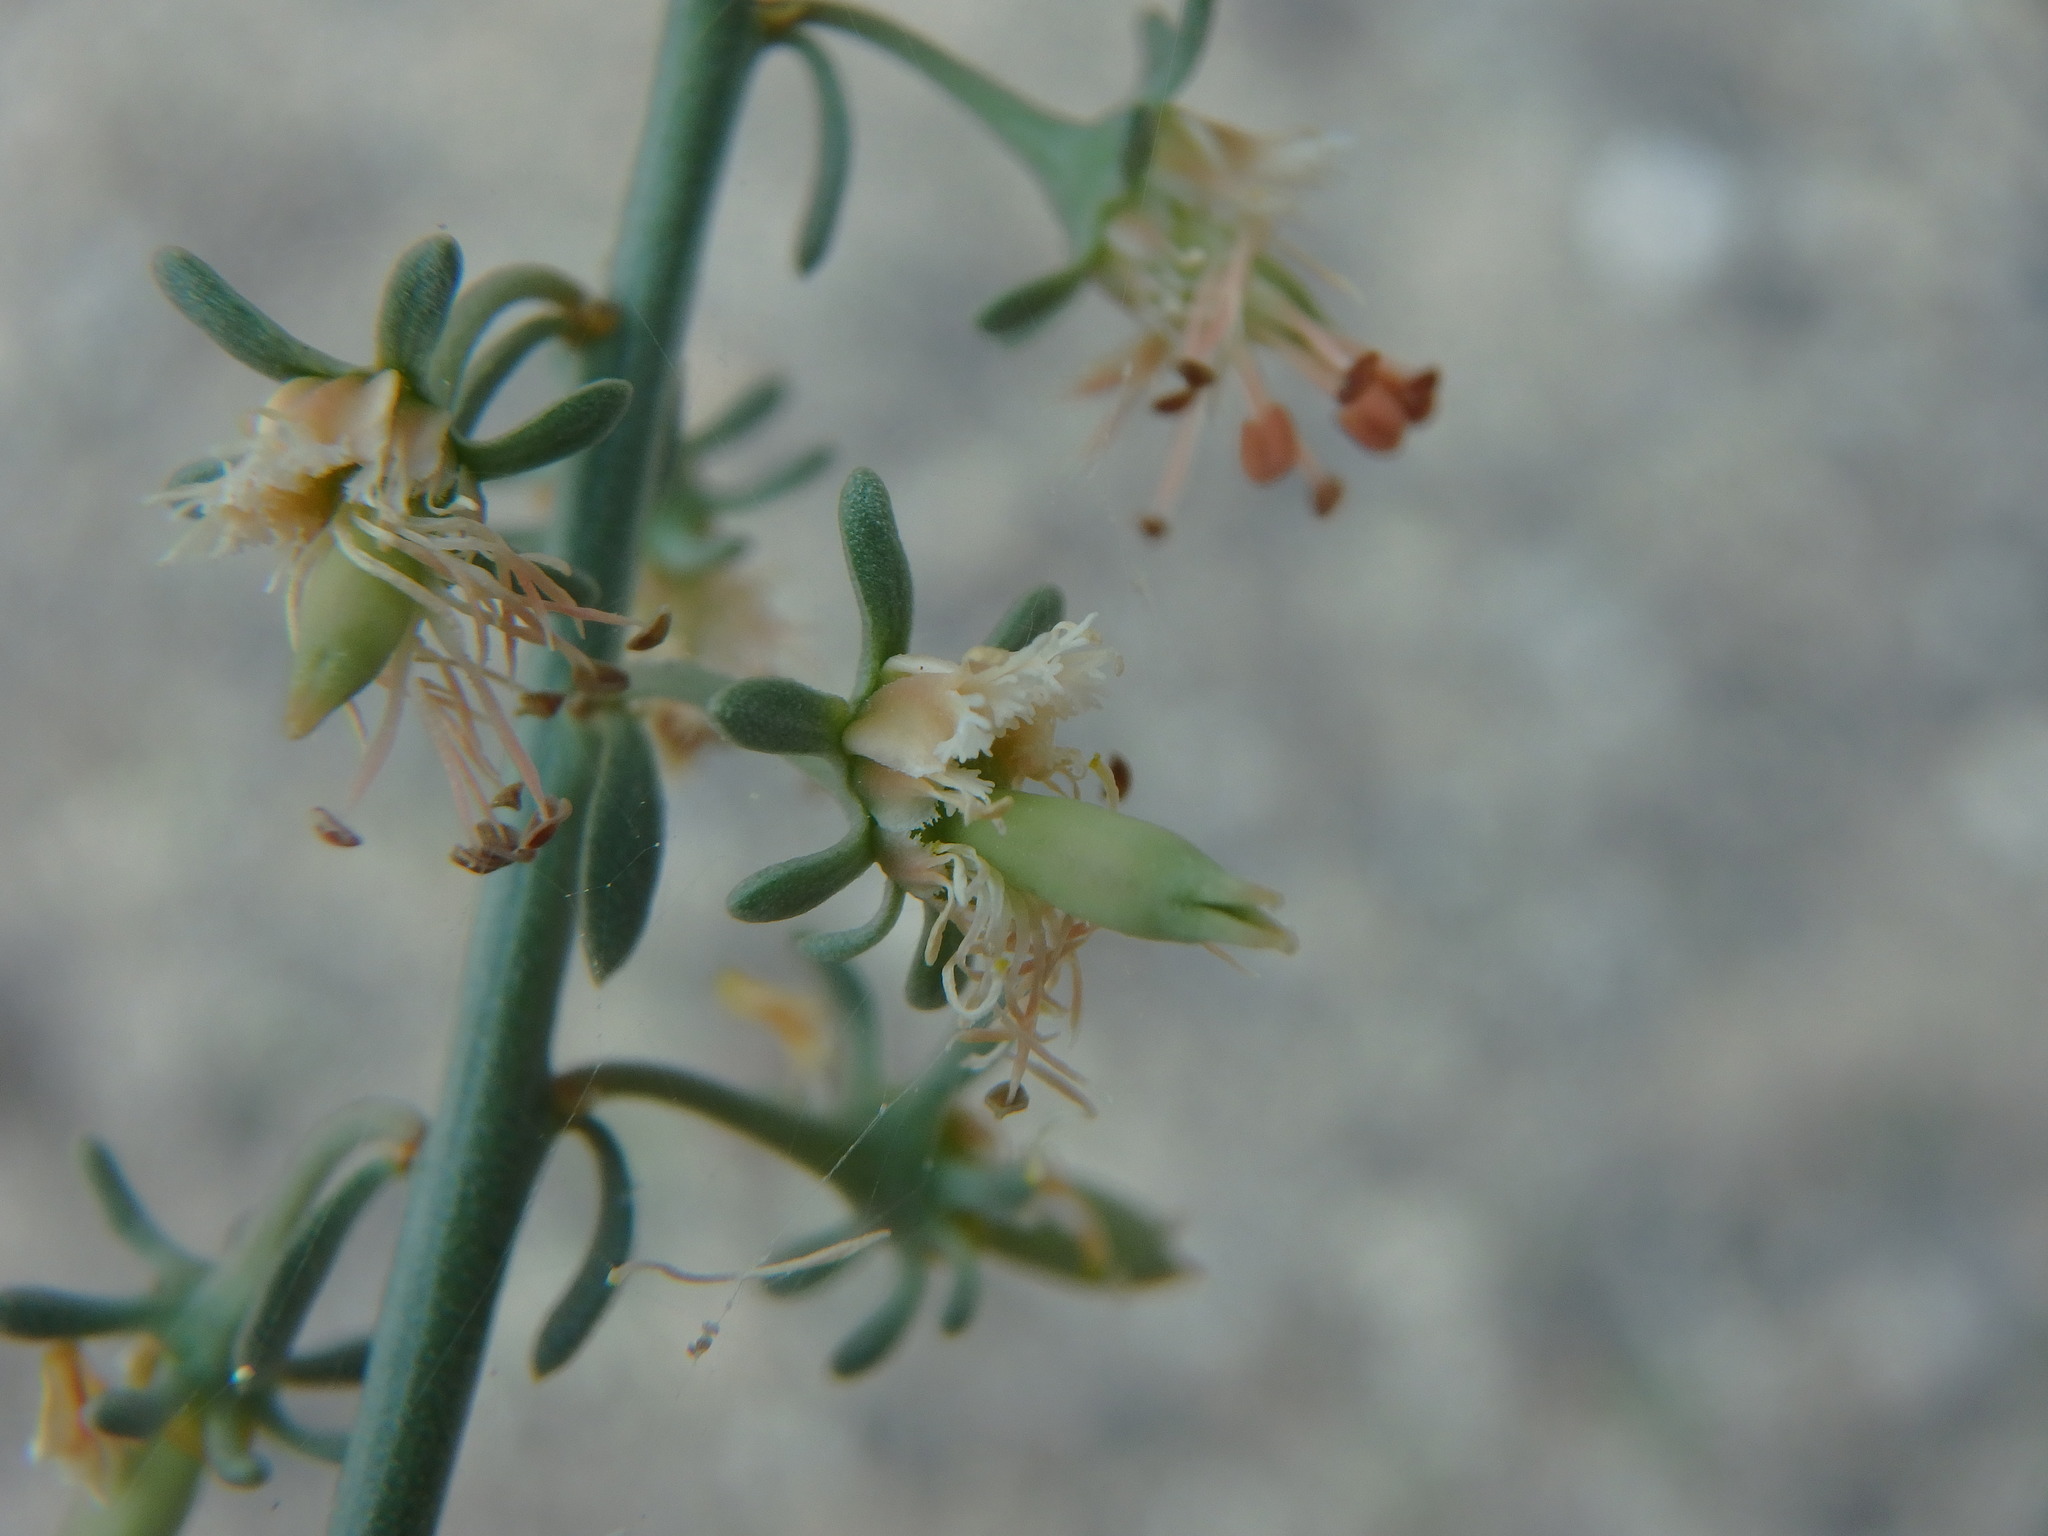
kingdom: Plantae
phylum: Tracheophyta
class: Magnoliopsida
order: Brassicales
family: Resedaceae
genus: Reseda
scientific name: Reseda scoparia
